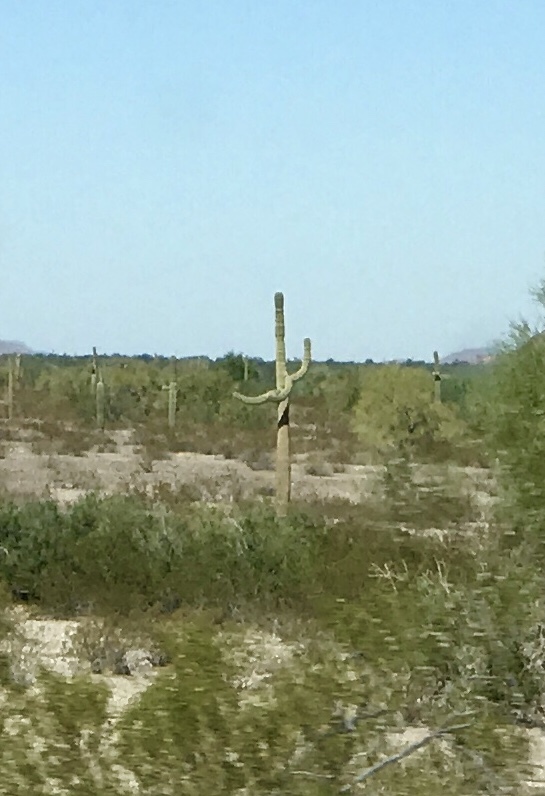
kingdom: Plantae
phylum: Tracheophyta
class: Magnoliopsida
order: Caryophyllales
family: Cactaceae
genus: Carnegiea
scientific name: Carnegiea gigantea
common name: Saguaro
